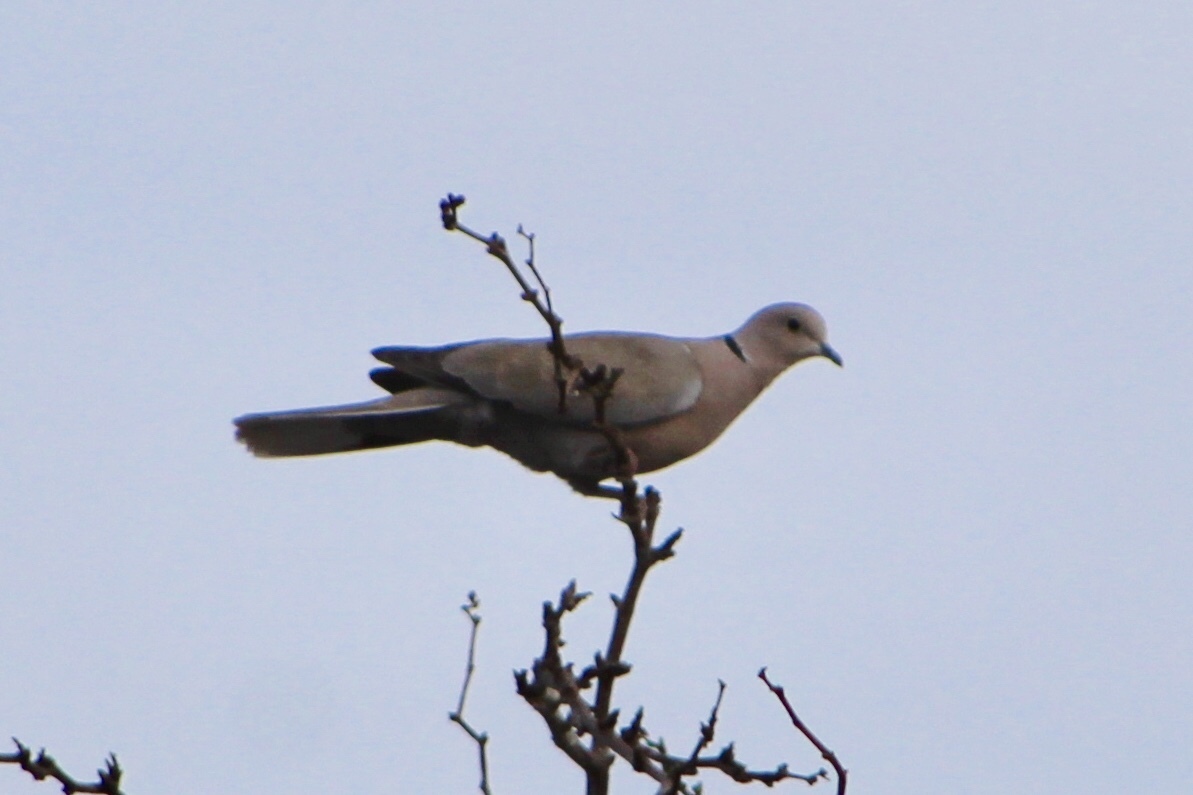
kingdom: Animalia
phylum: Chordata
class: Aves
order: Columbiformes
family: Columbidae
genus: Streptopelia
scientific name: Streptopelia decaocto
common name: Eurasian collared dove
